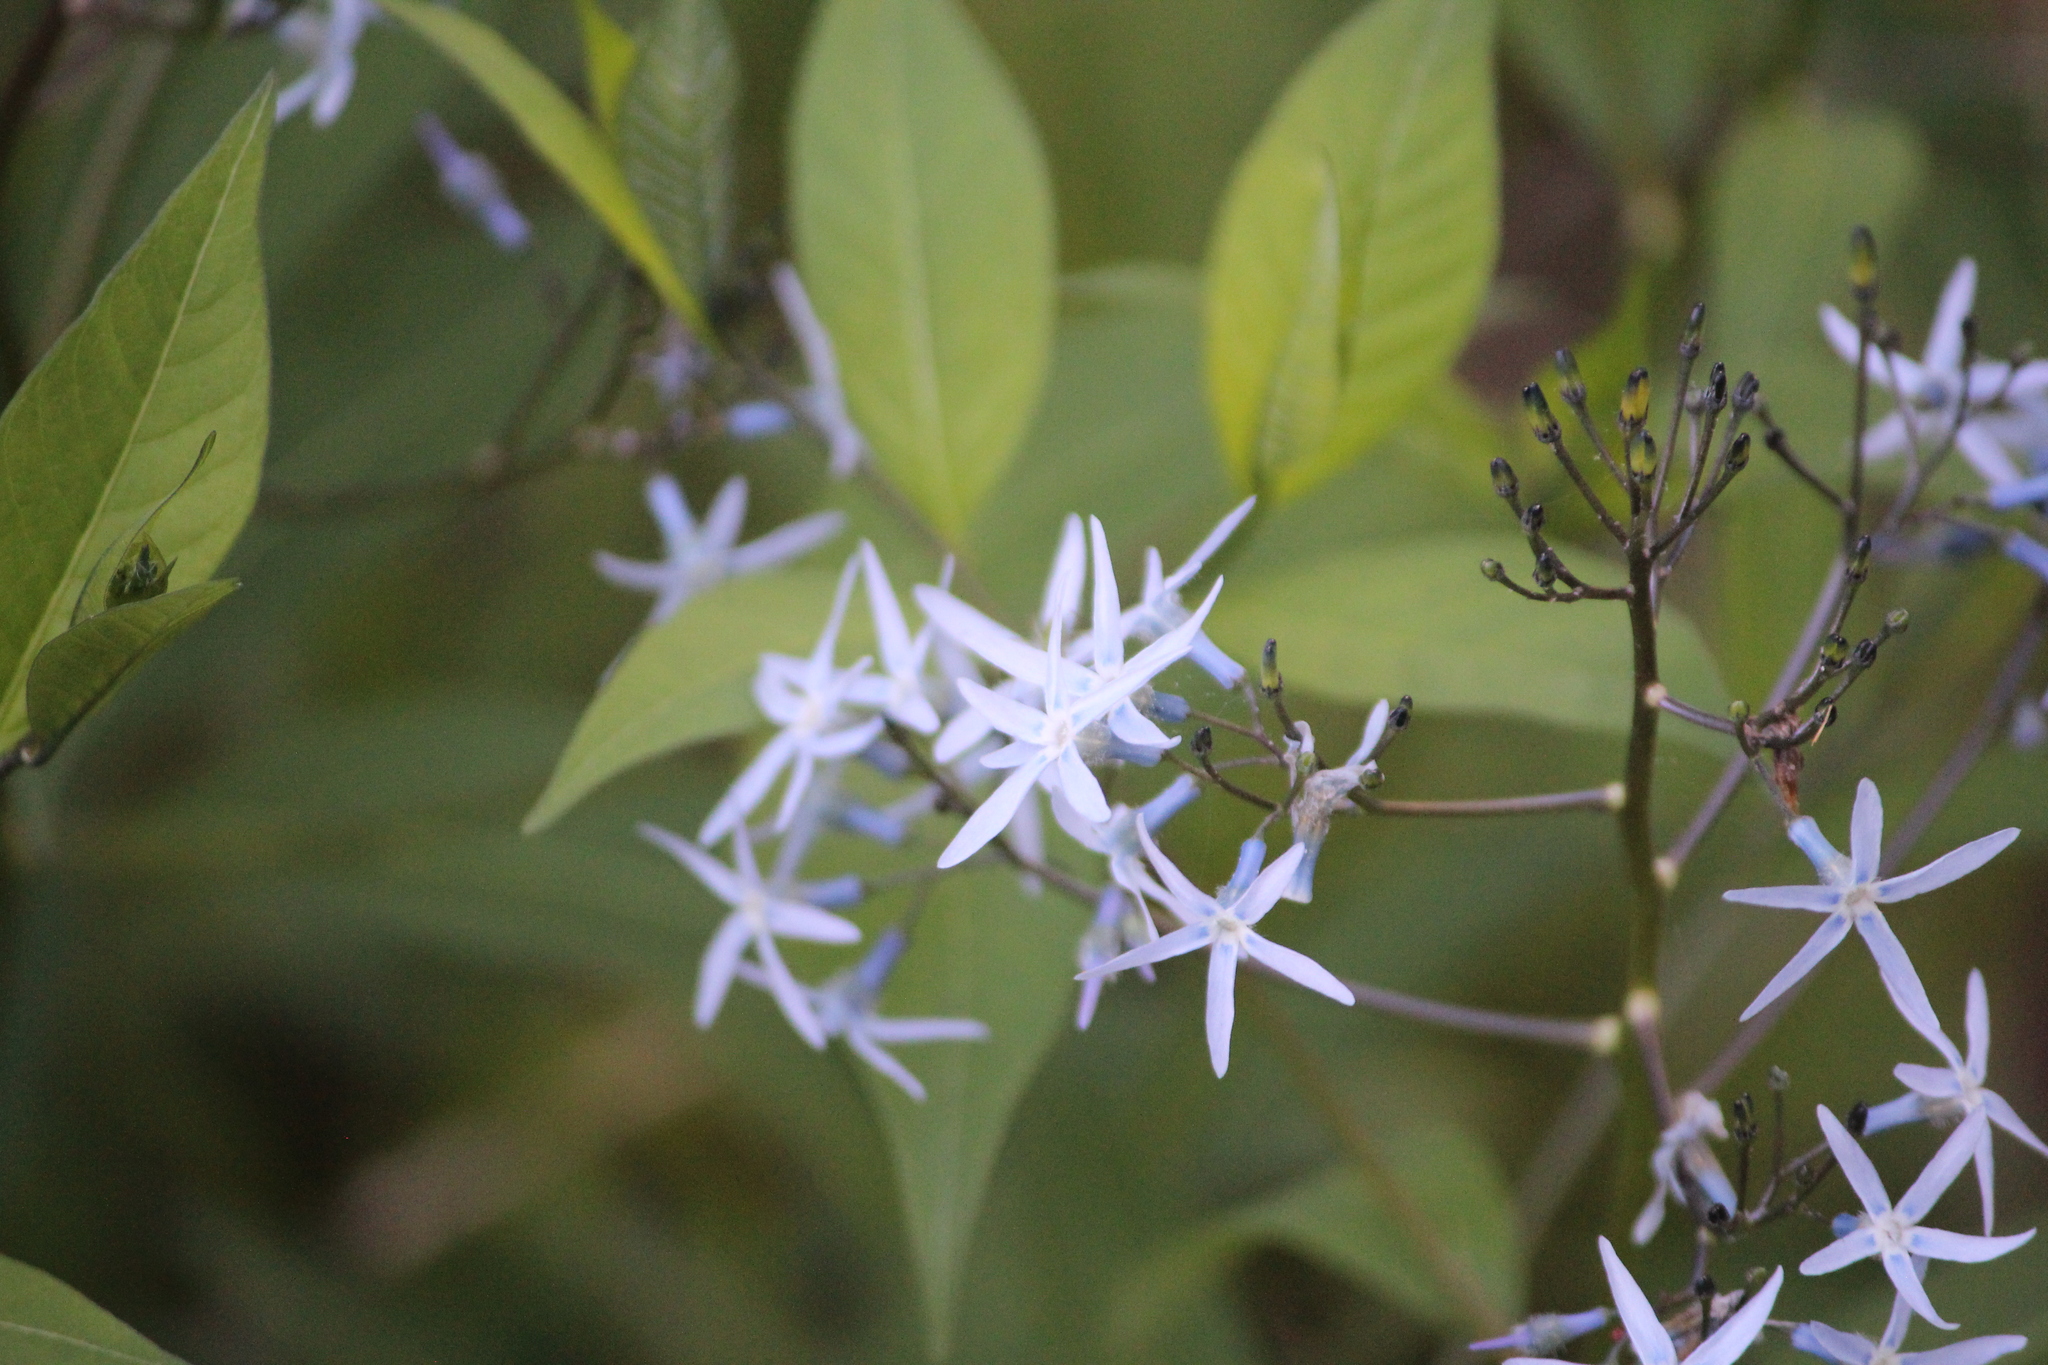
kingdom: Plantae
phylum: Tracheophyta
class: Magnoliopsida
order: Gentianales
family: Apocynaceae
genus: Amsonia
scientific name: Amsonia tabernaemontana
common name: Texas-star
